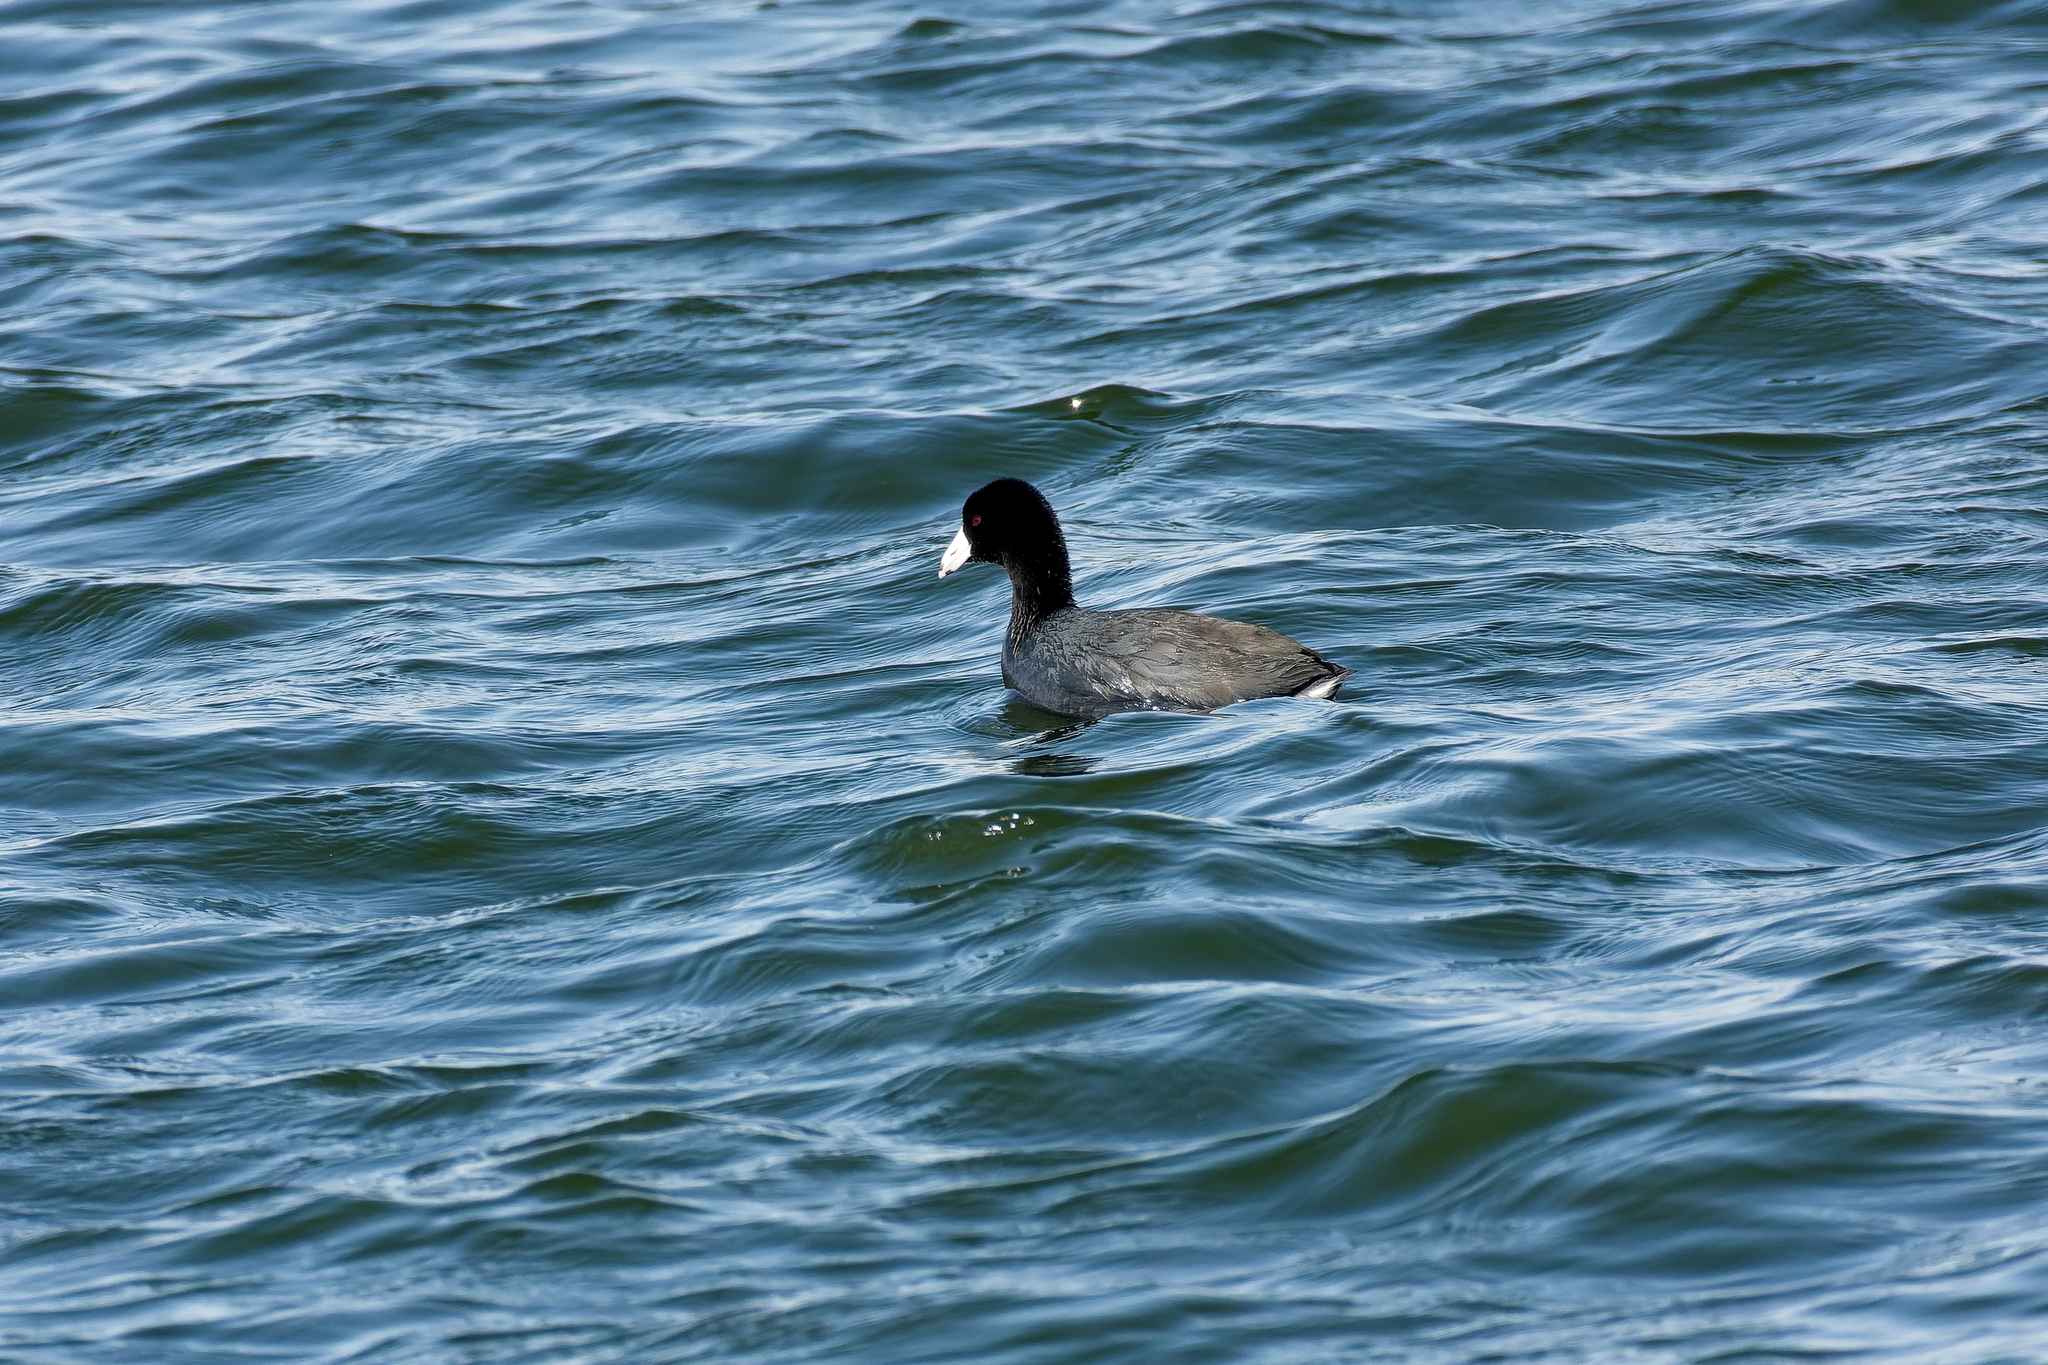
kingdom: Animalia
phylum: Chordata
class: Aves
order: Gruiformes
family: Rallidae
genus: Fulica
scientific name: Fulica americana
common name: American coot
